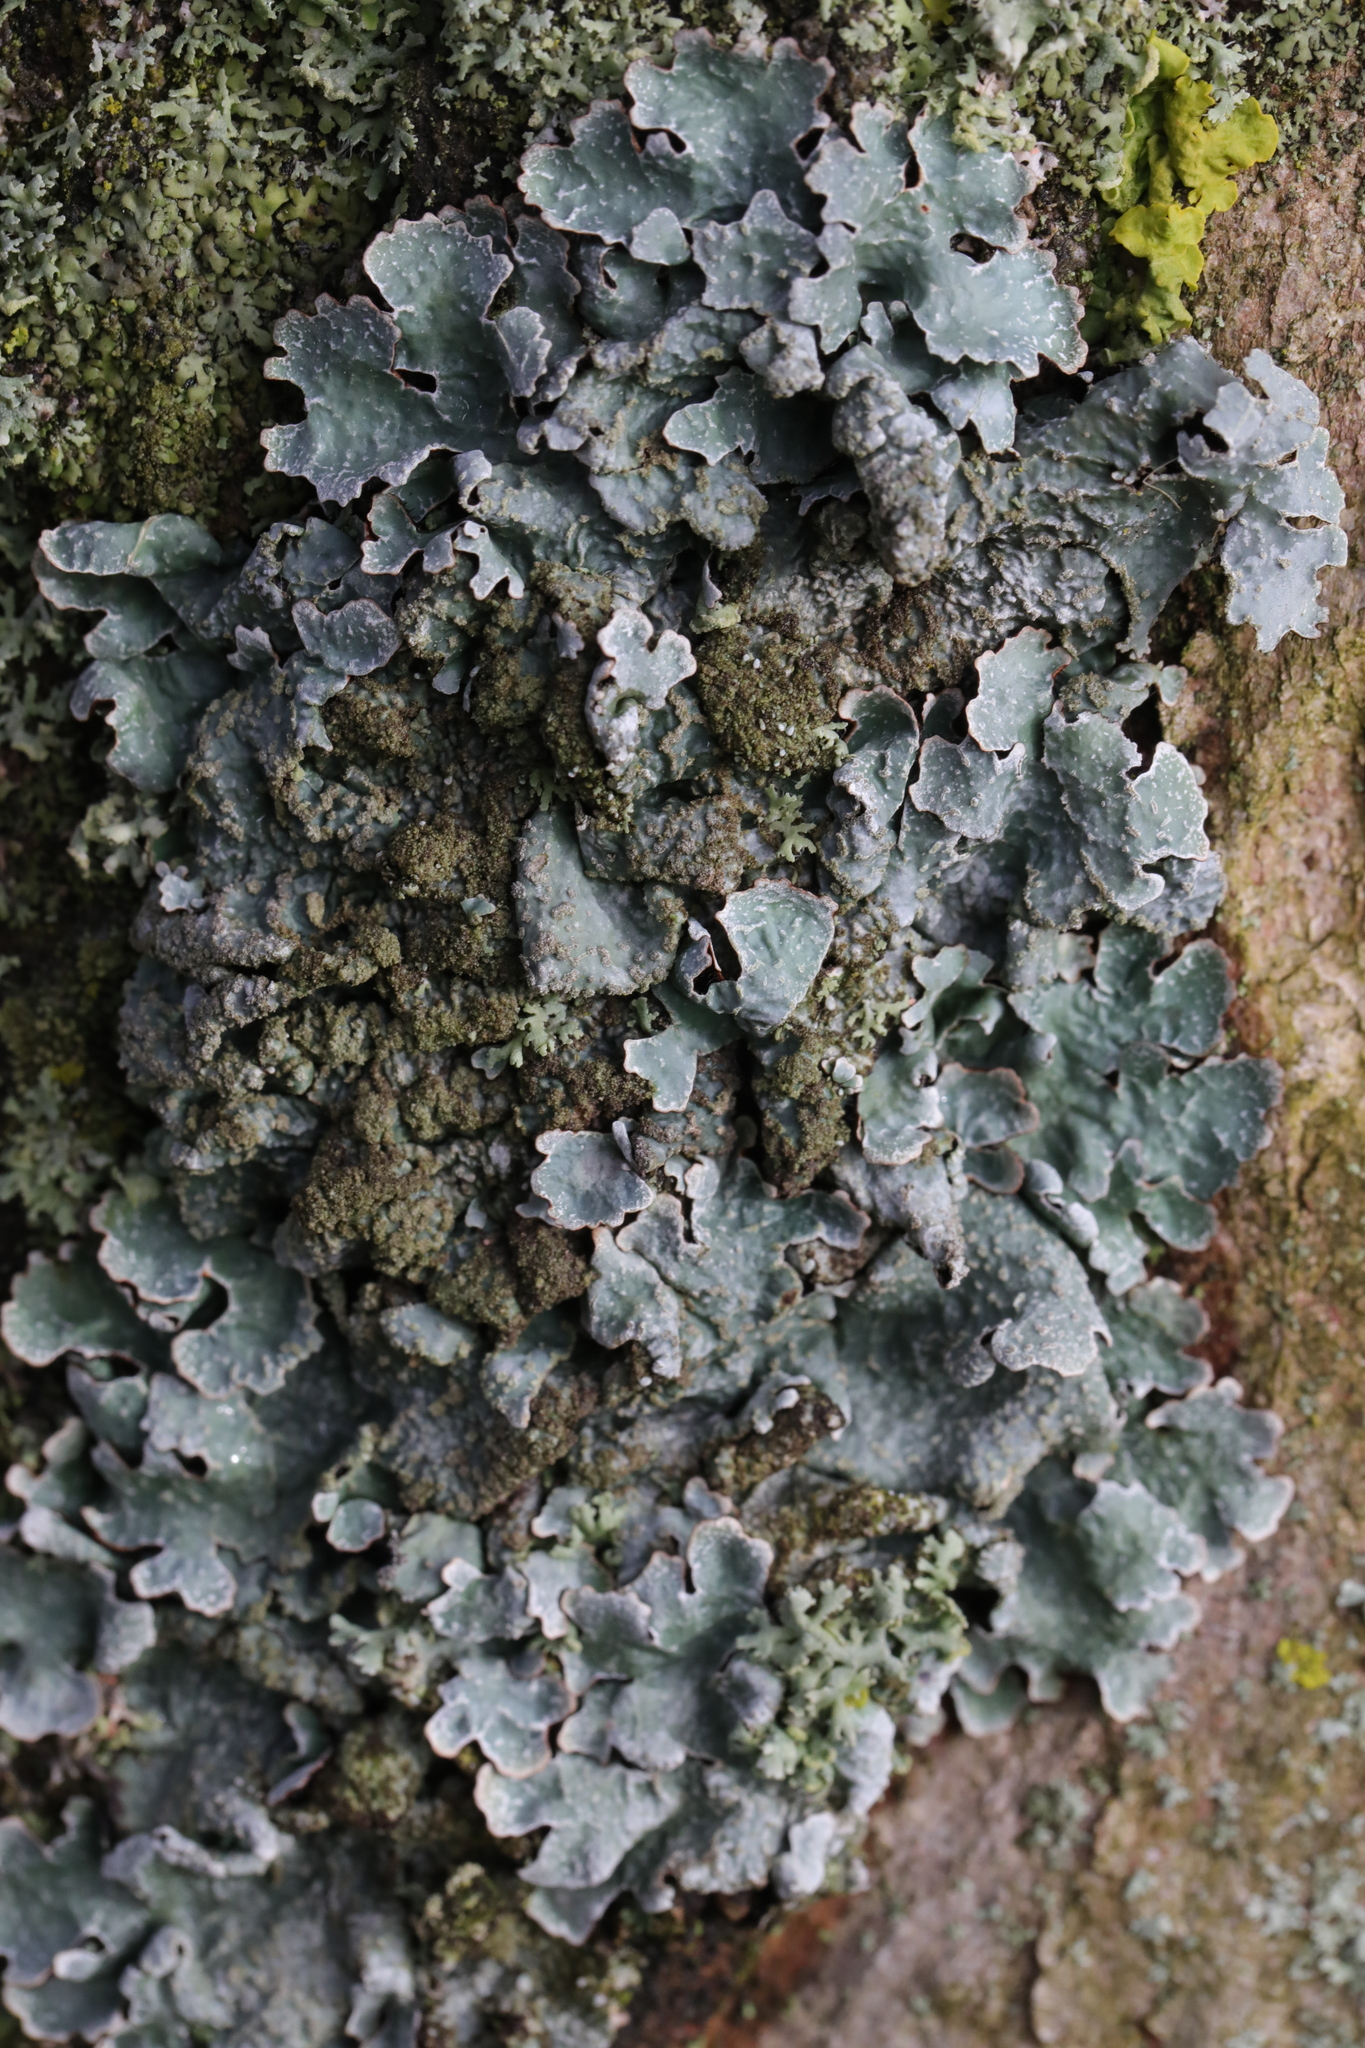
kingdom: Fungi
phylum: Ascomycota
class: Lecanoromycetes
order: Lecanorales
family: Parmeliaceae
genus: Parmelia
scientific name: Parmelia sulcata
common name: Netted shield lichen
